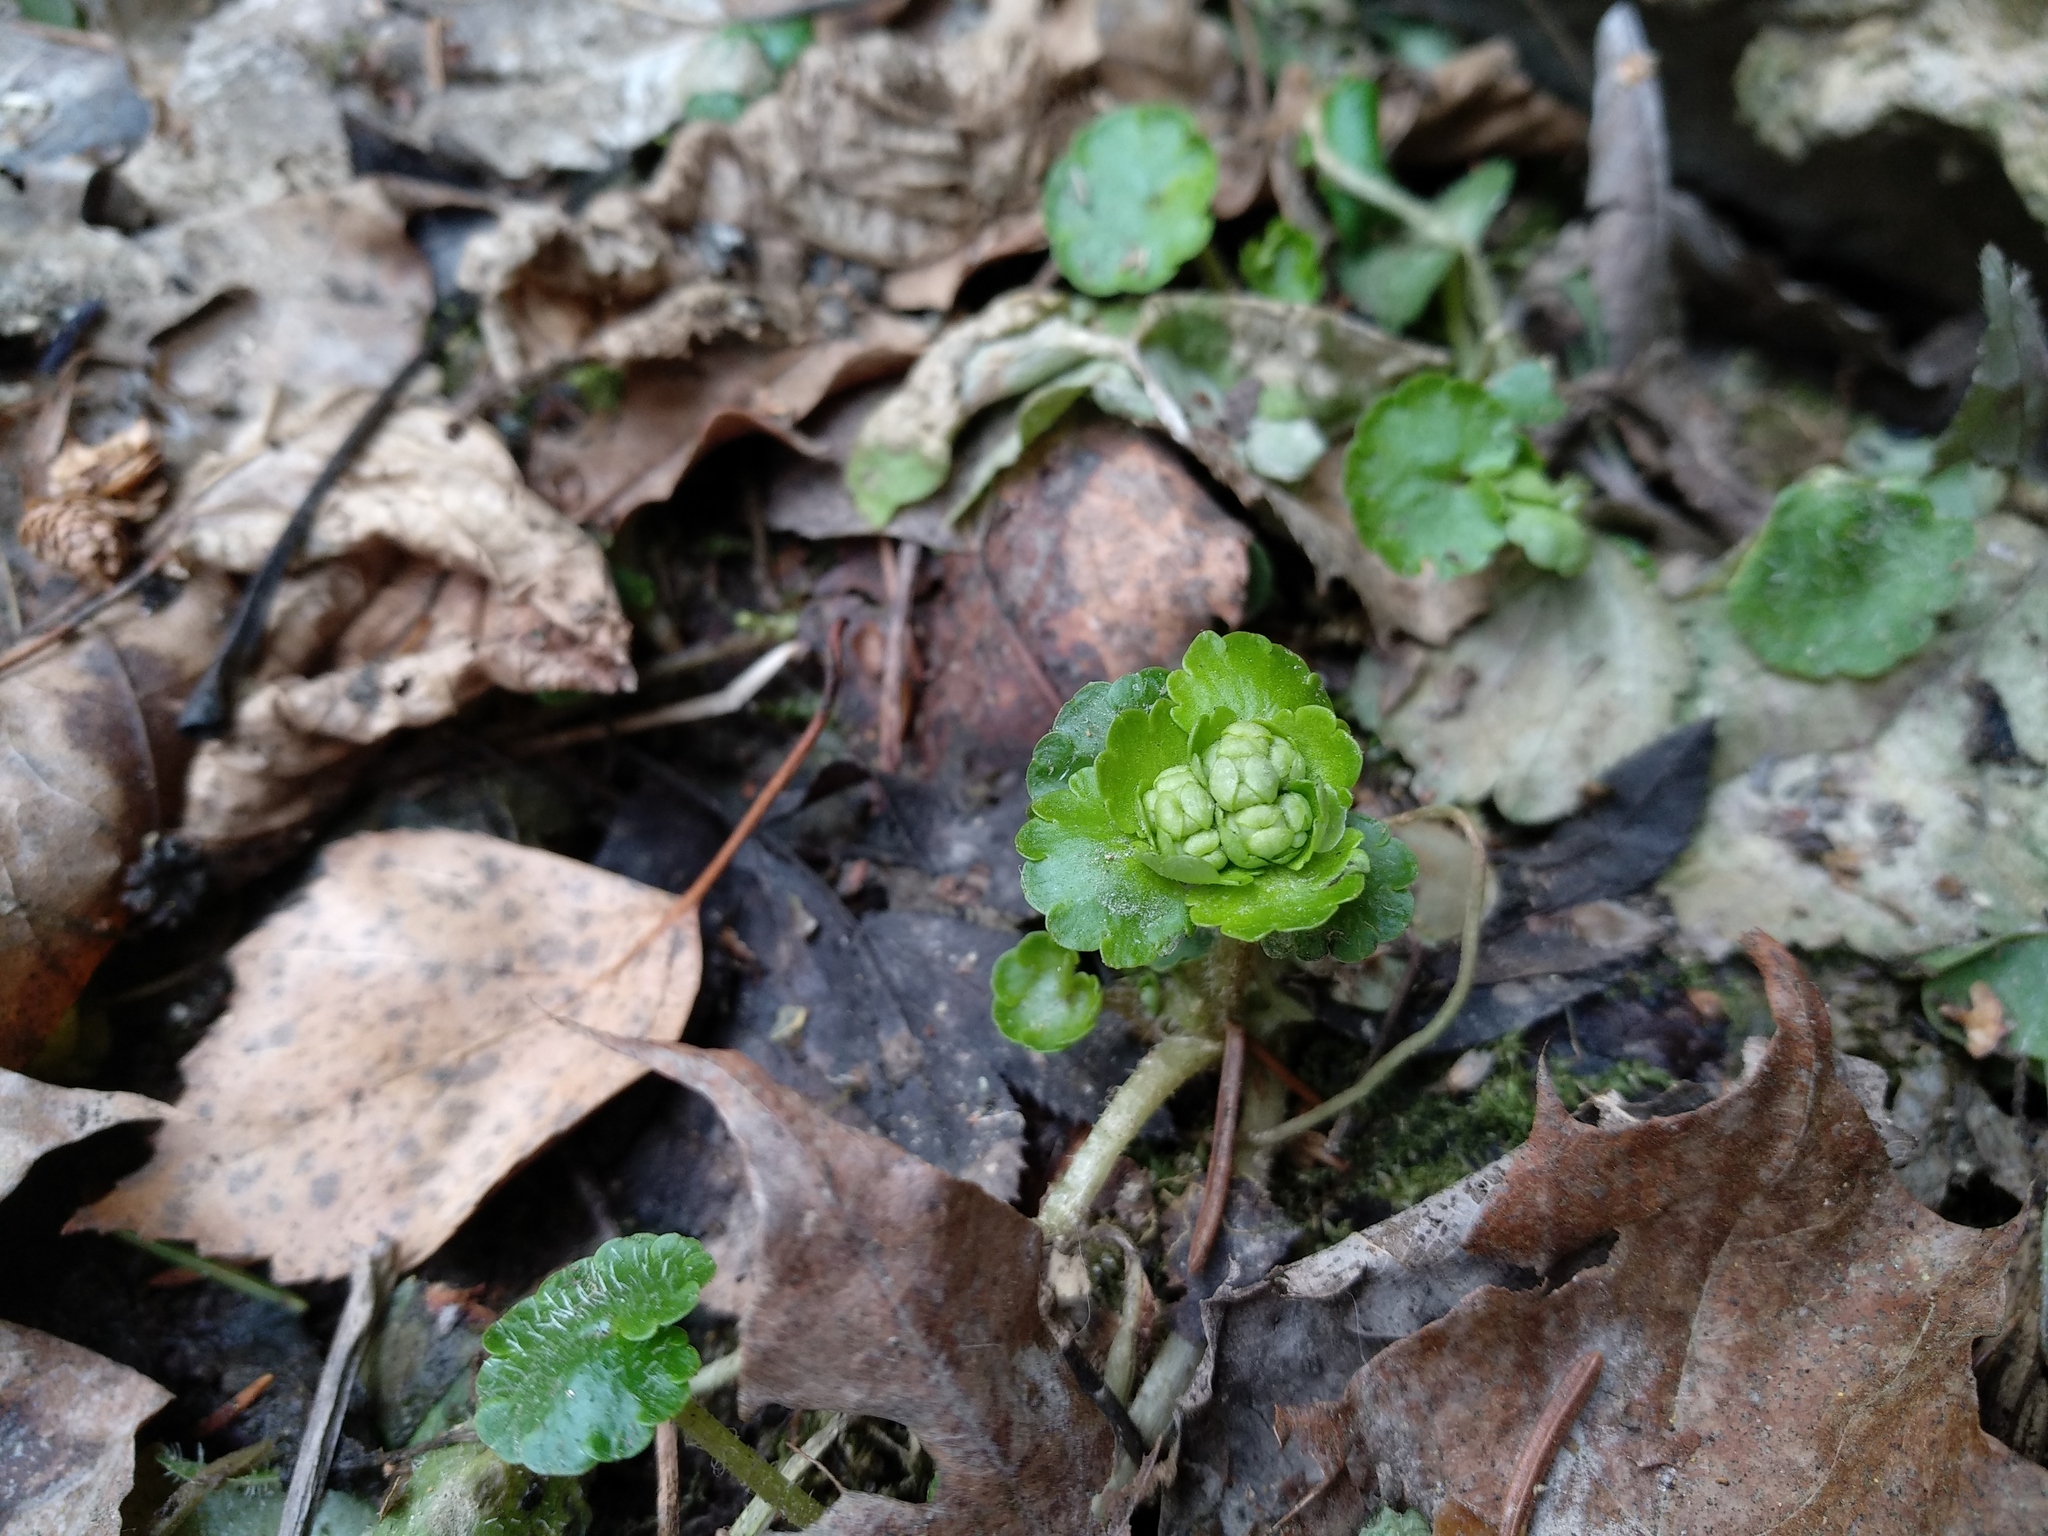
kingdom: Plantae
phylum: Tracheophyta
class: Magnoliopsida
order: Saxifragales
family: Saxifragaceae
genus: Chrysosplenium
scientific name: Chrysosplenium alternifolium
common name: Alternate-leaved golden-saxifrage
